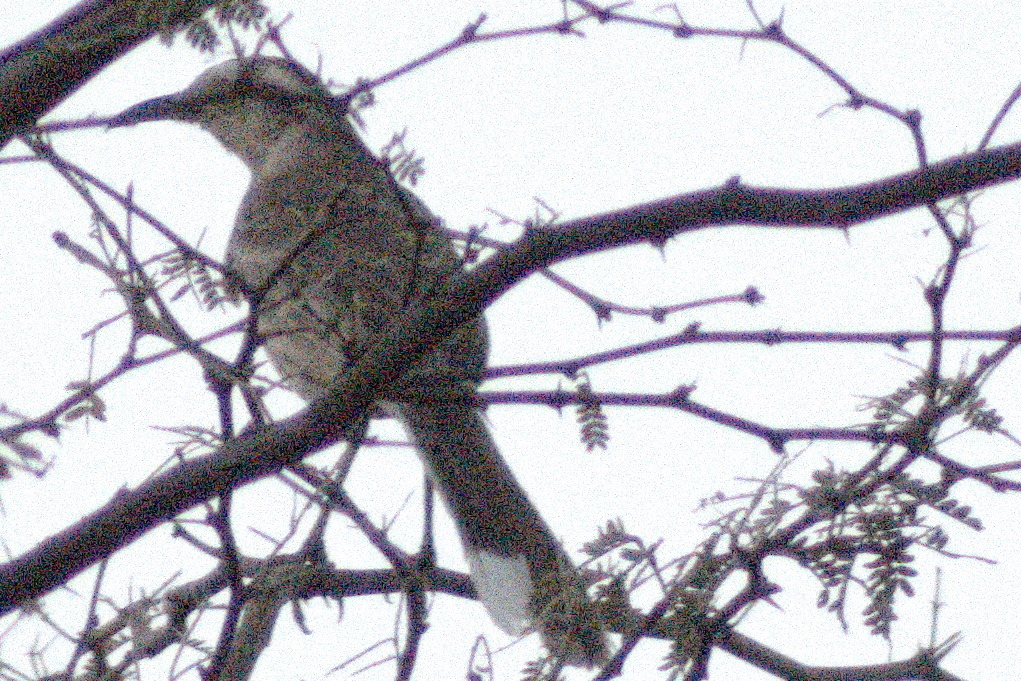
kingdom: Animalia
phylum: Chordata
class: Aves
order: Passeriformes
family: Mimidae
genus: Mimus
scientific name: Mimus saturninus
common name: Chalk-browed mockingbird
